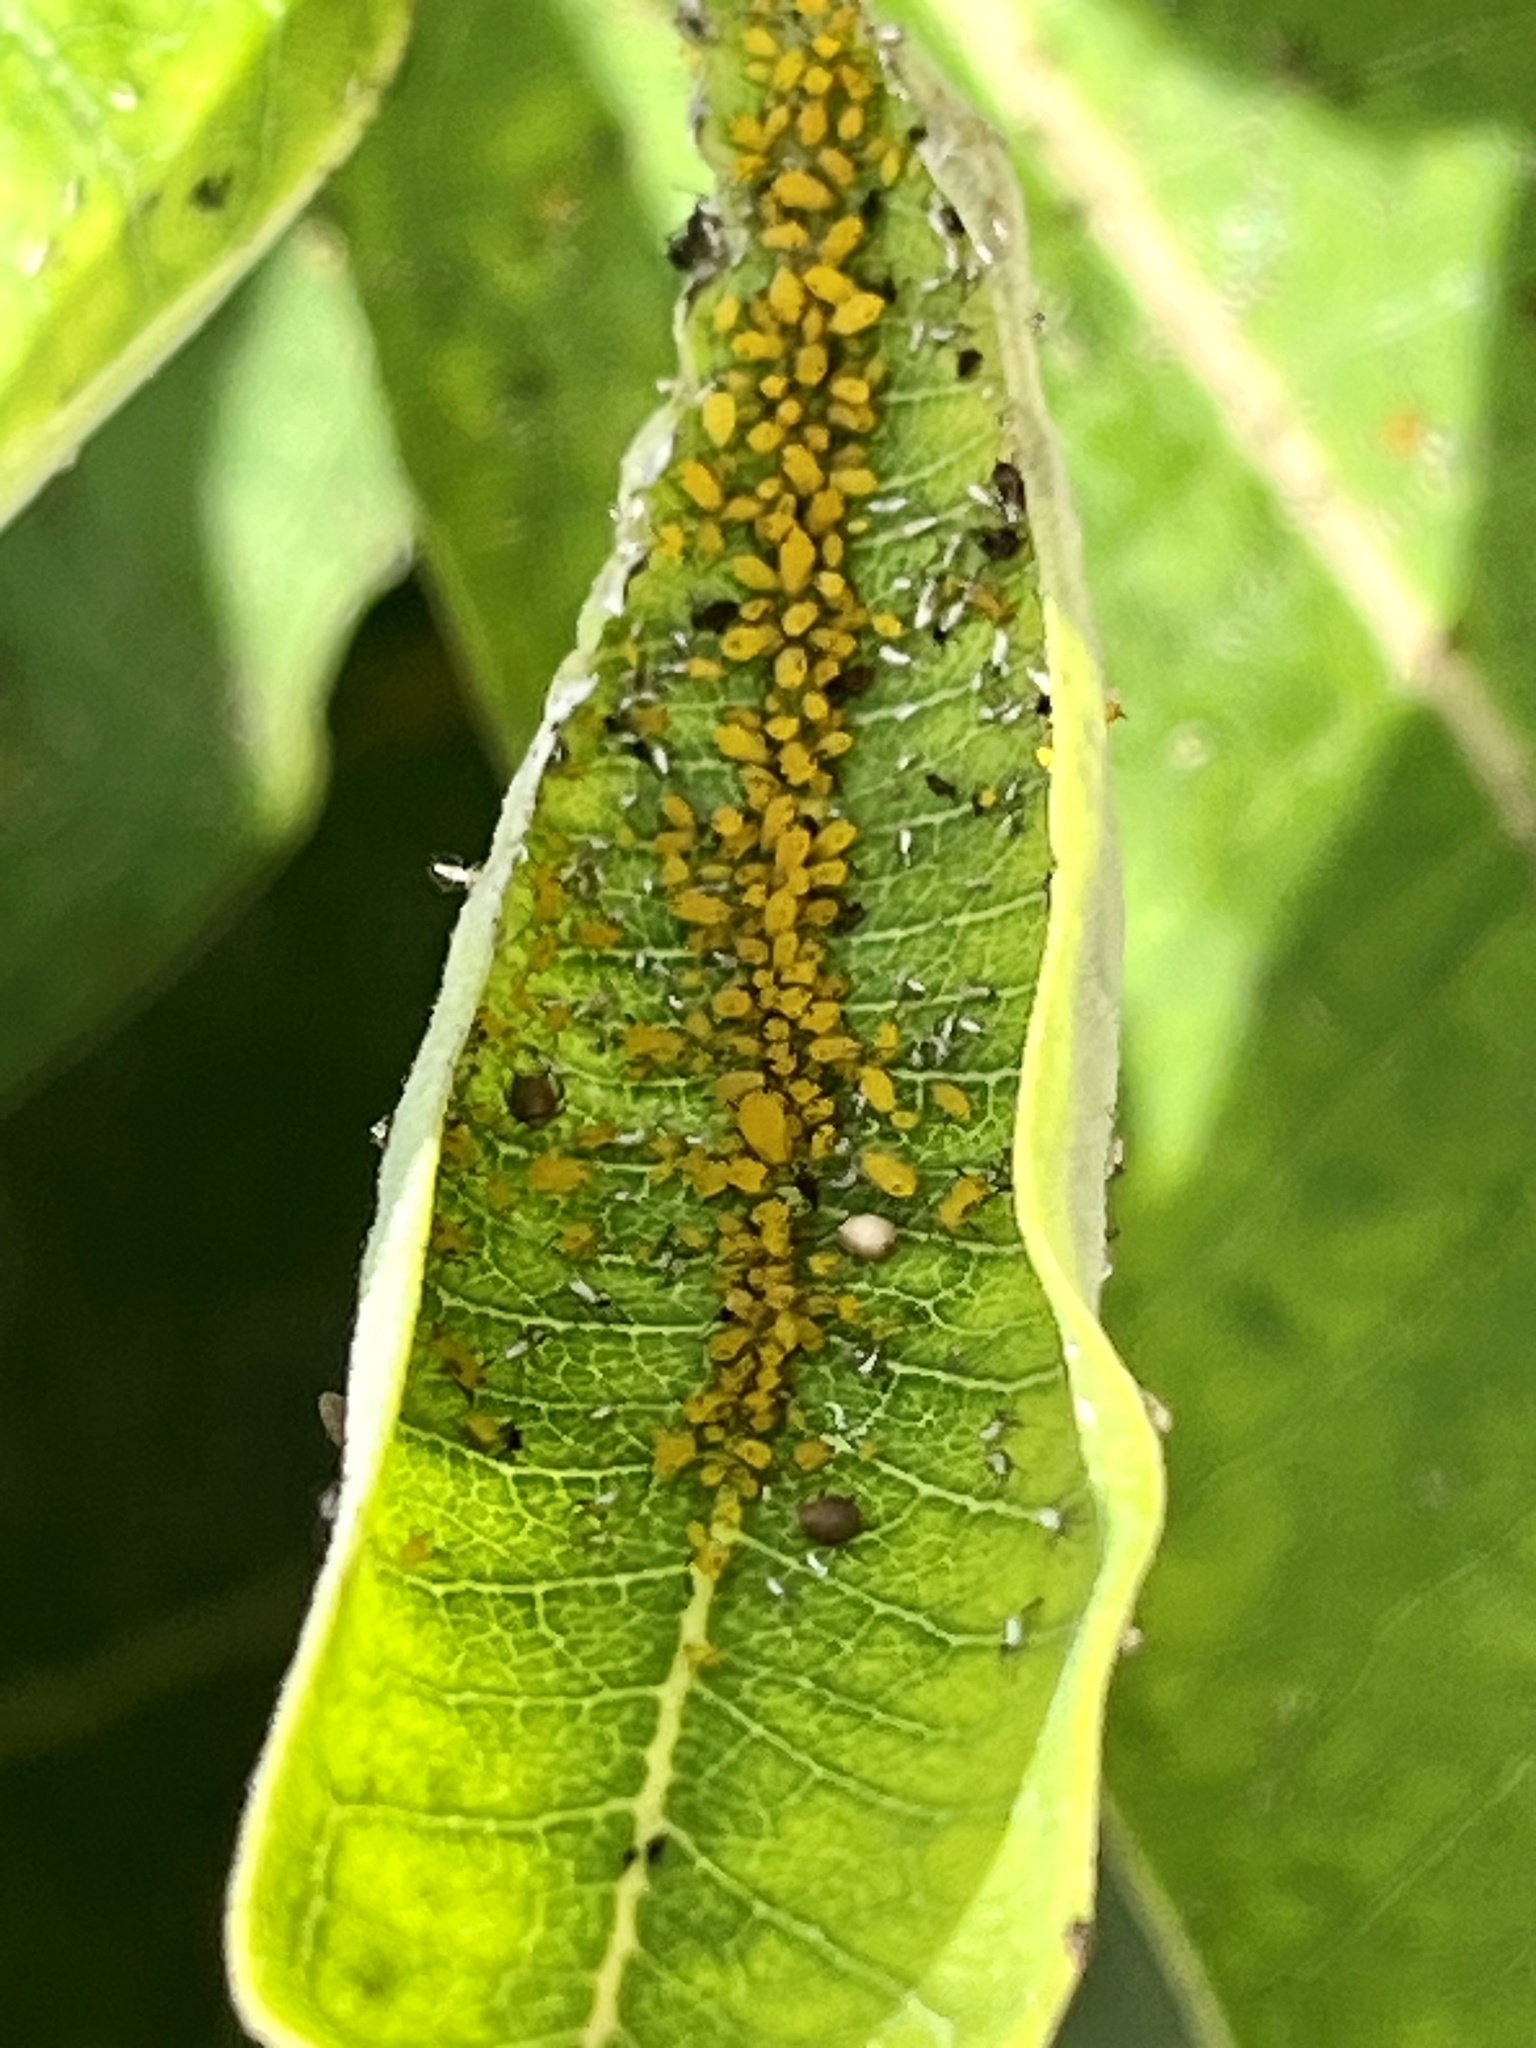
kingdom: Animalia
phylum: Arthropoda
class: Insecta
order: Hemiptera
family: Aphididae
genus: Aphis
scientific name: Aphis nerii
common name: Oleander aphid
